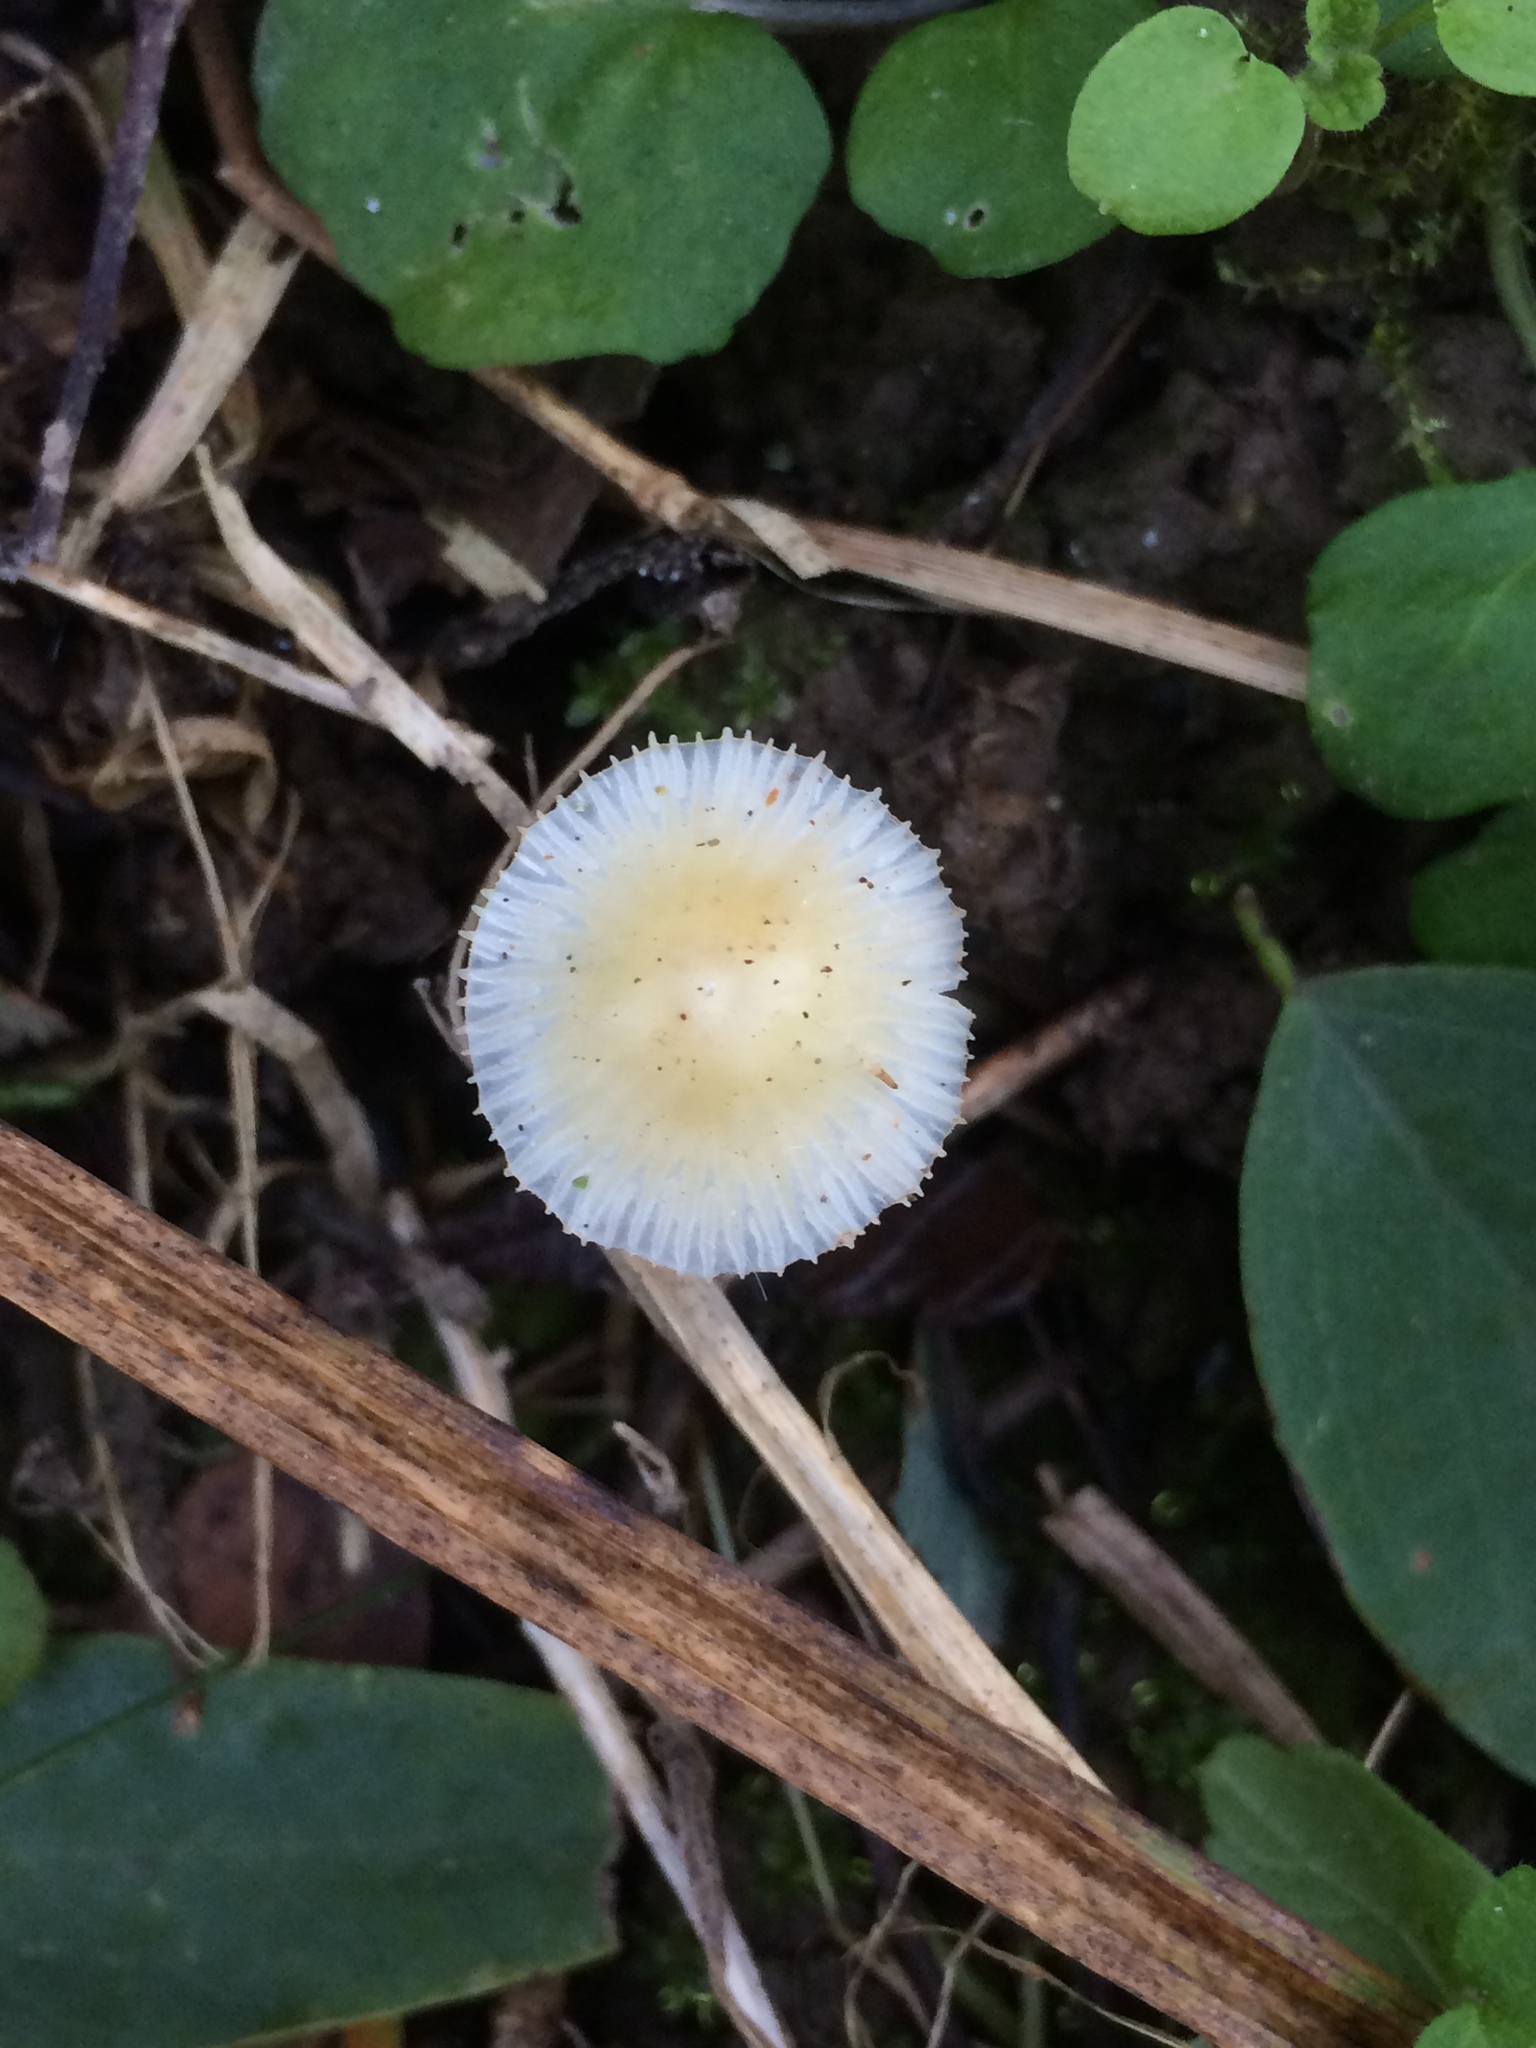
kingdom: Fungi
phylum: Basidiomycota
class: Agaricomycetes
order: Agaricales
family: Mycenaceae
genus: Mycena
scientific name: Mycena crocea
